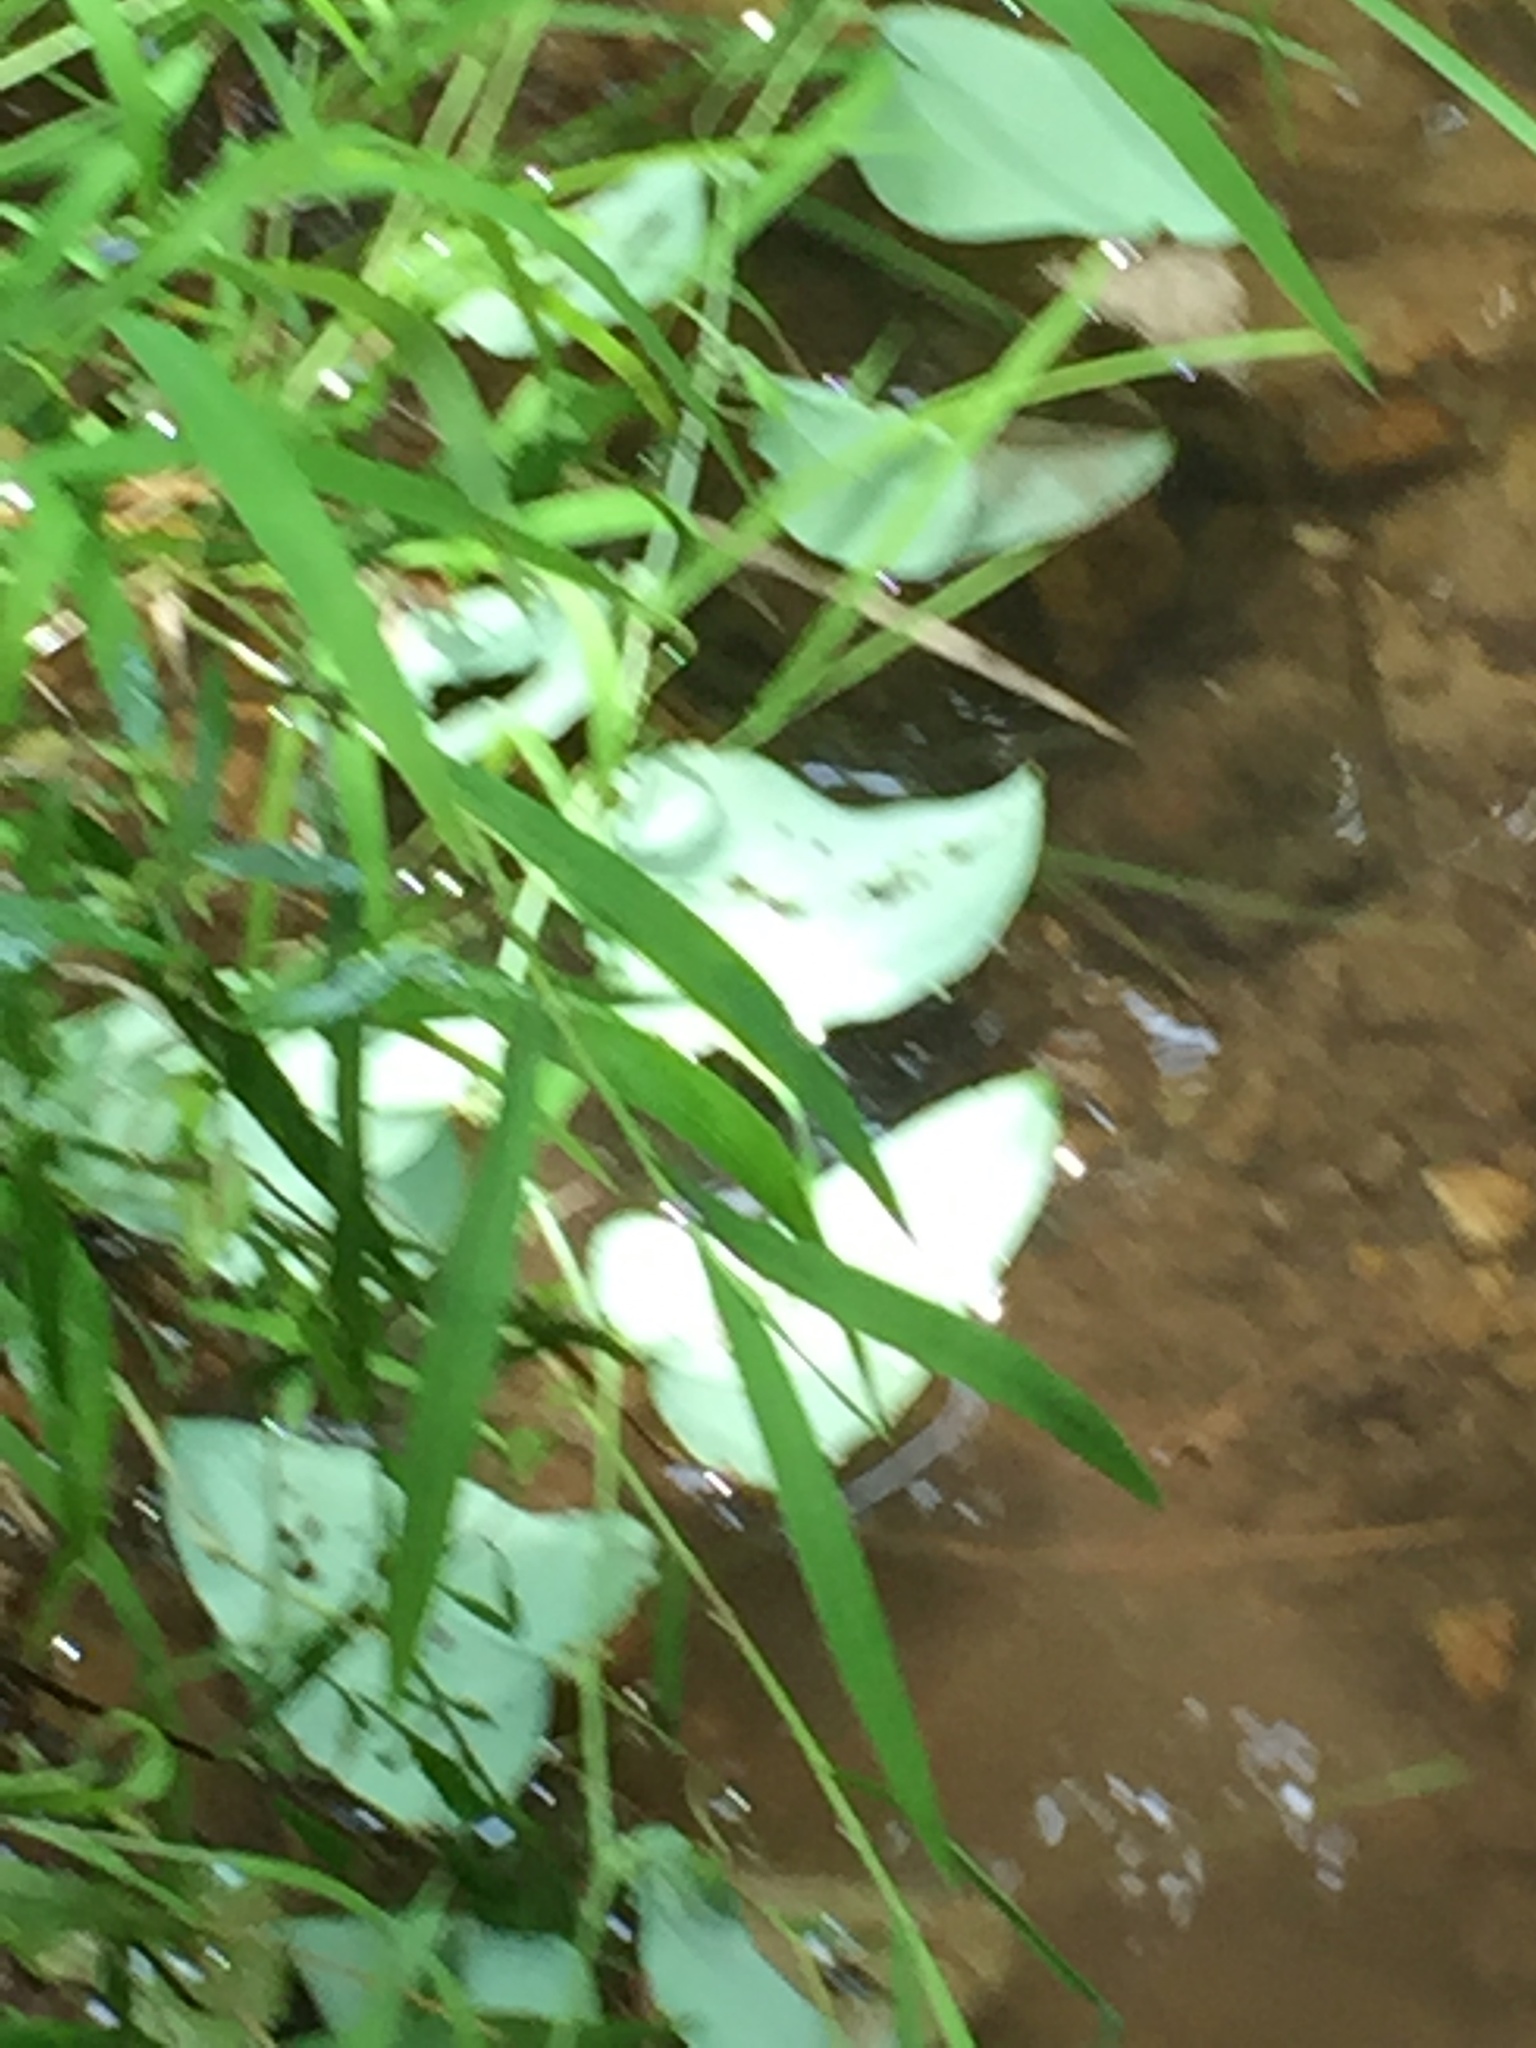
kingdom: Plantae
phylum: Tracheophyta
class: Liliopsida
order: Liliales
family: Smilacaceae
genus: Smilax
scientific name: Smilax glauca
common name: Cat greenbrier
